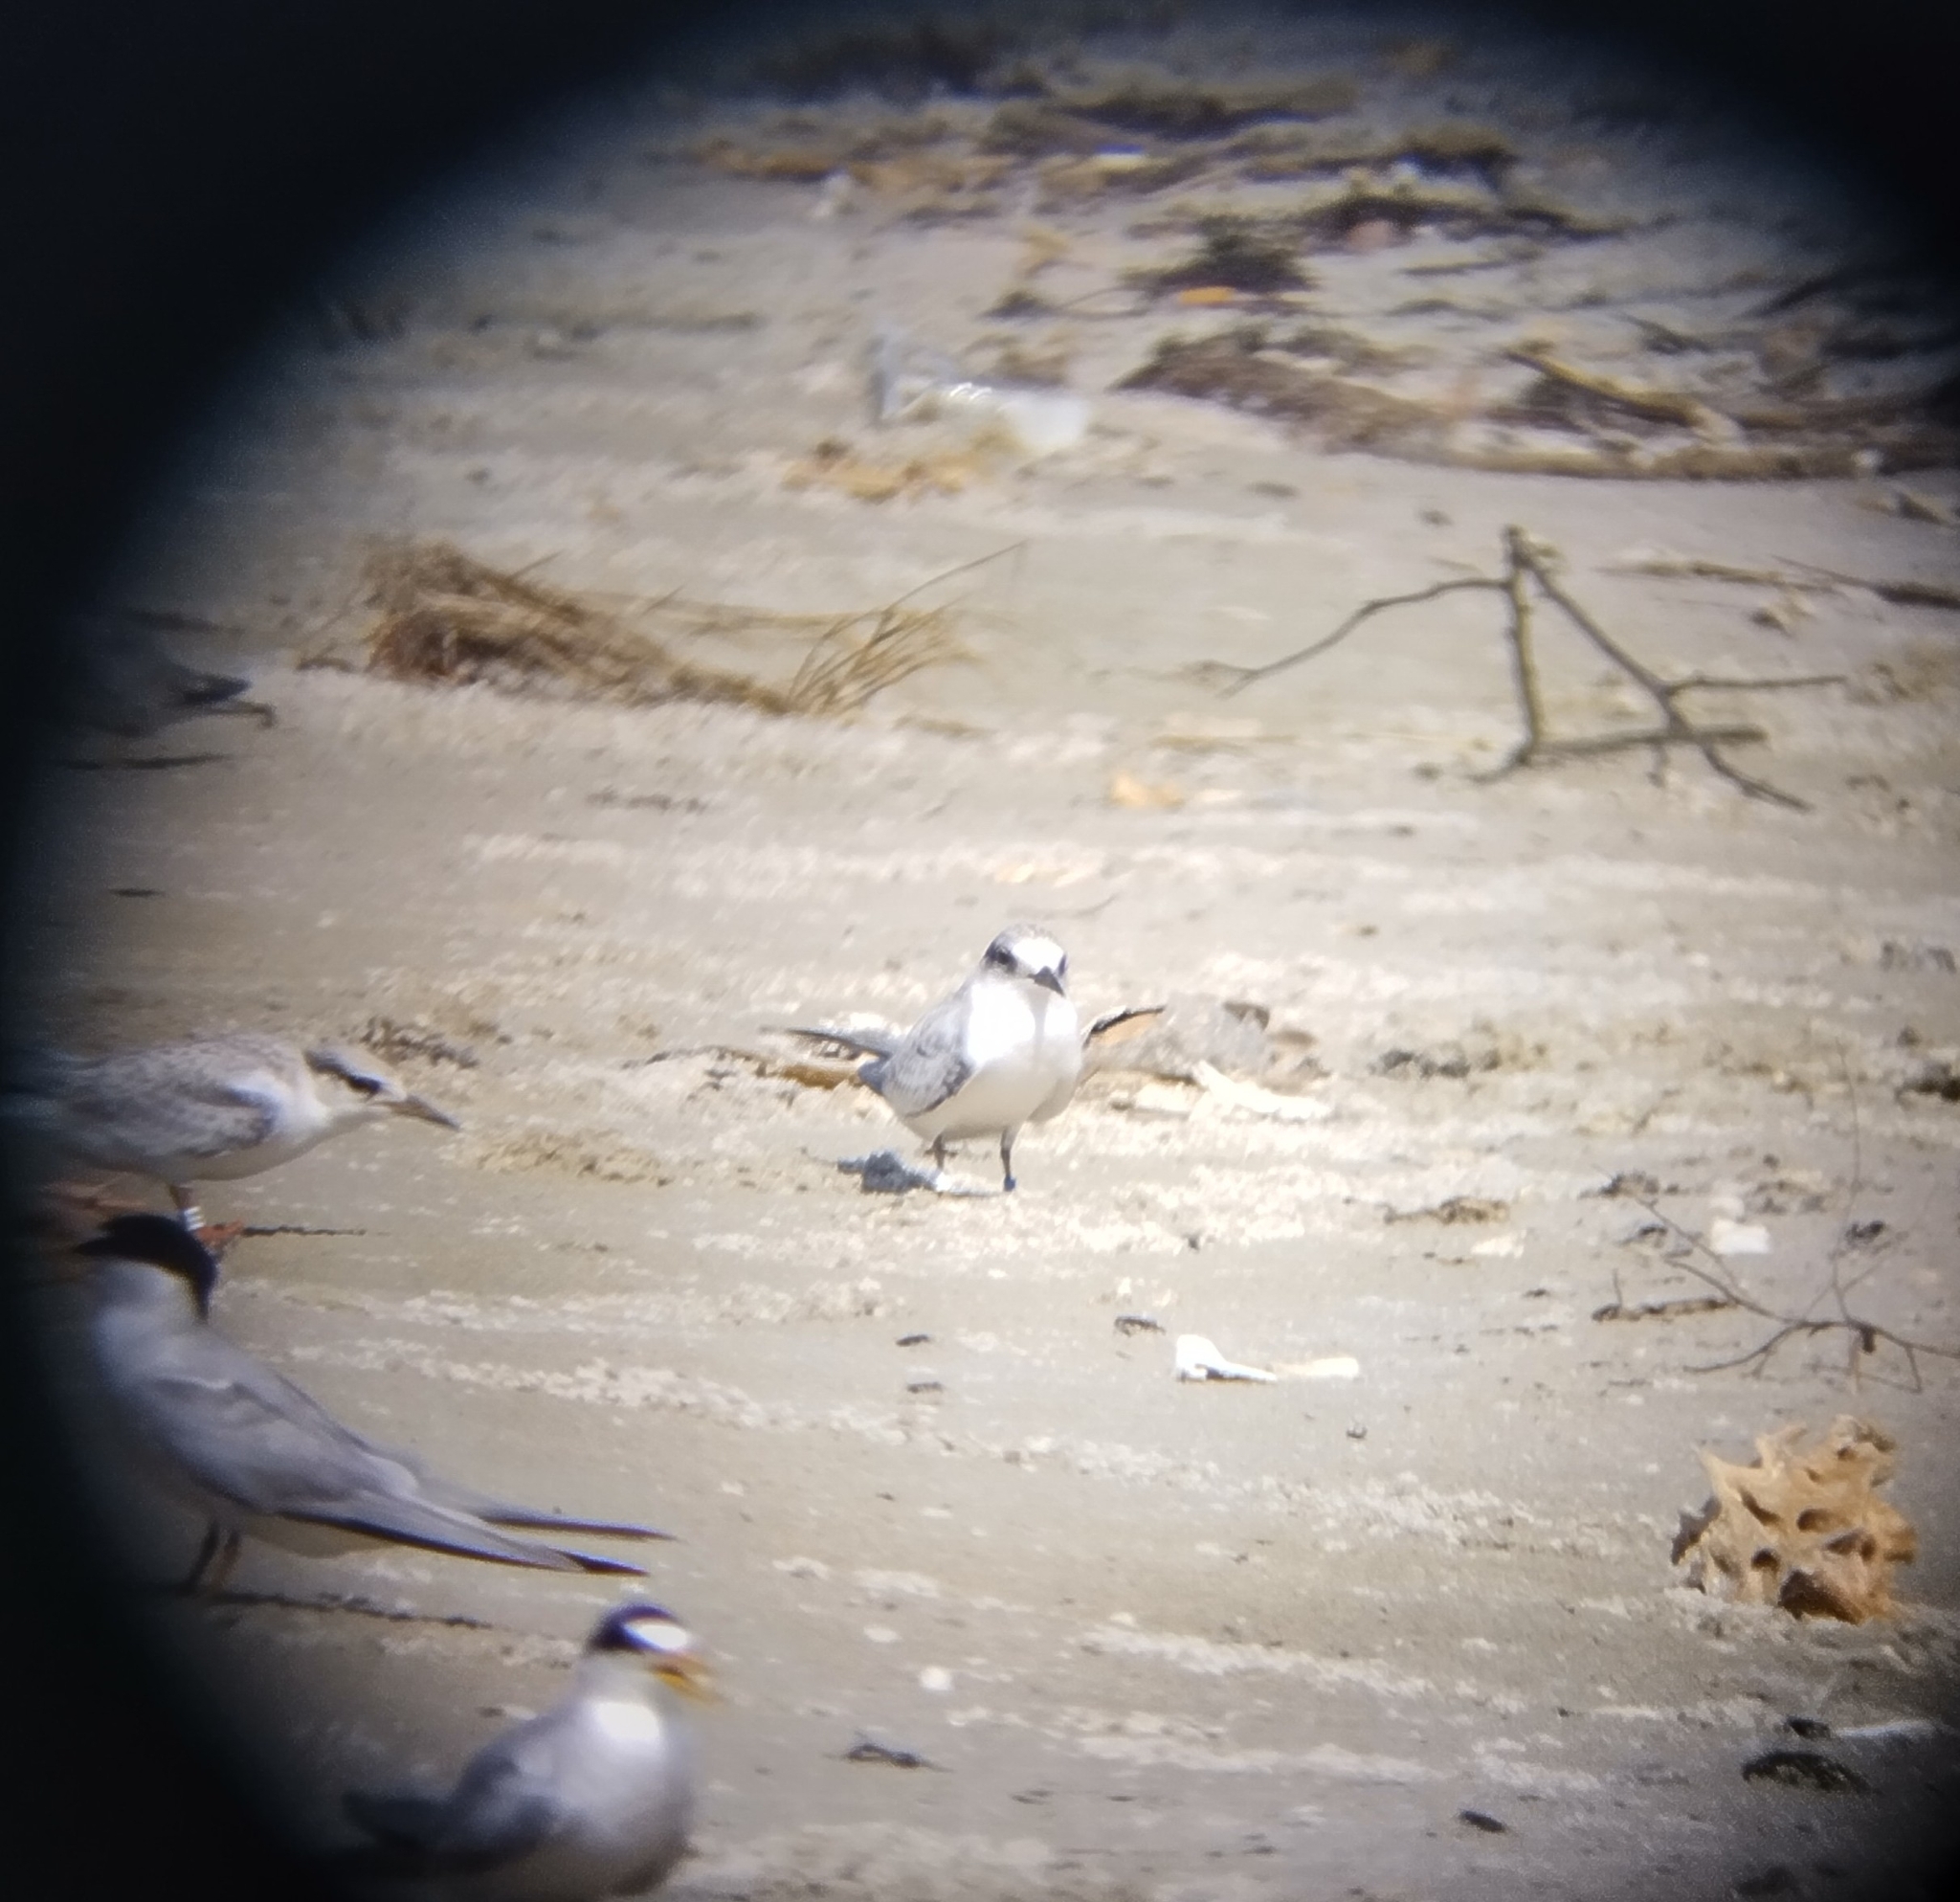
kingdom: Animalia
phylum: Chordata
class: Aves
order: Charadriiformes
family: Laridae
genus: Sternula
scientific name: Sternula antillarum
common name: Least tern
